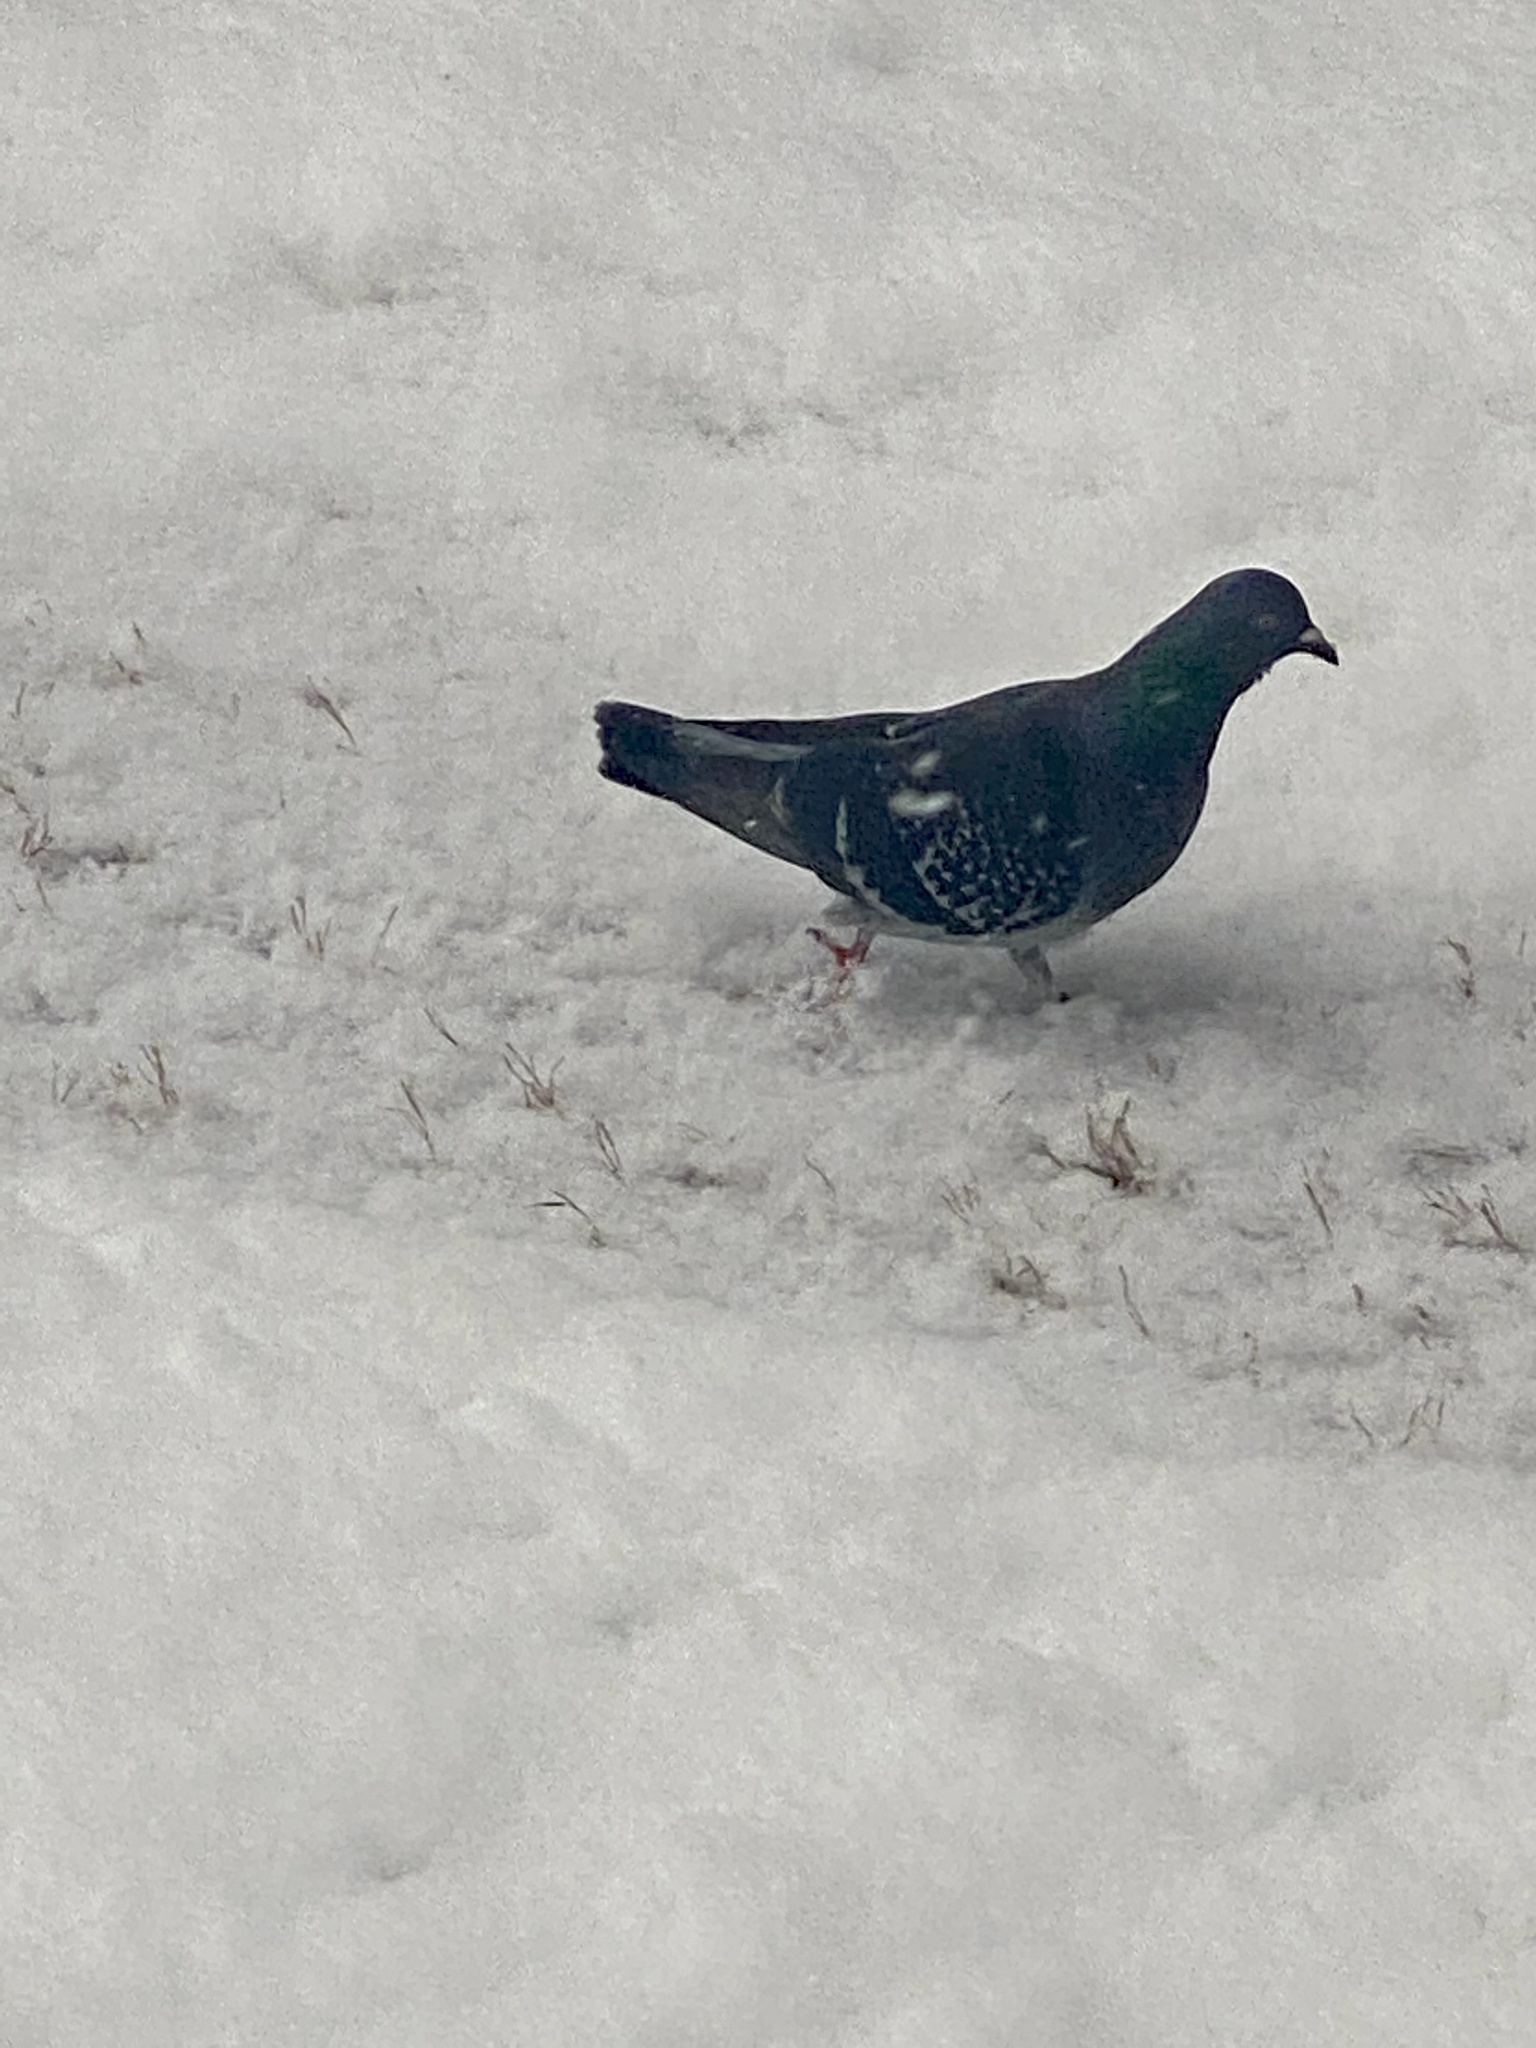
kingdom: Animalia
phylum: Chordata
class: Aves
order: Columbiformes
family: Columbidae
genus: Columba
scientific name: Columba livia
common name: Rock pigeon
